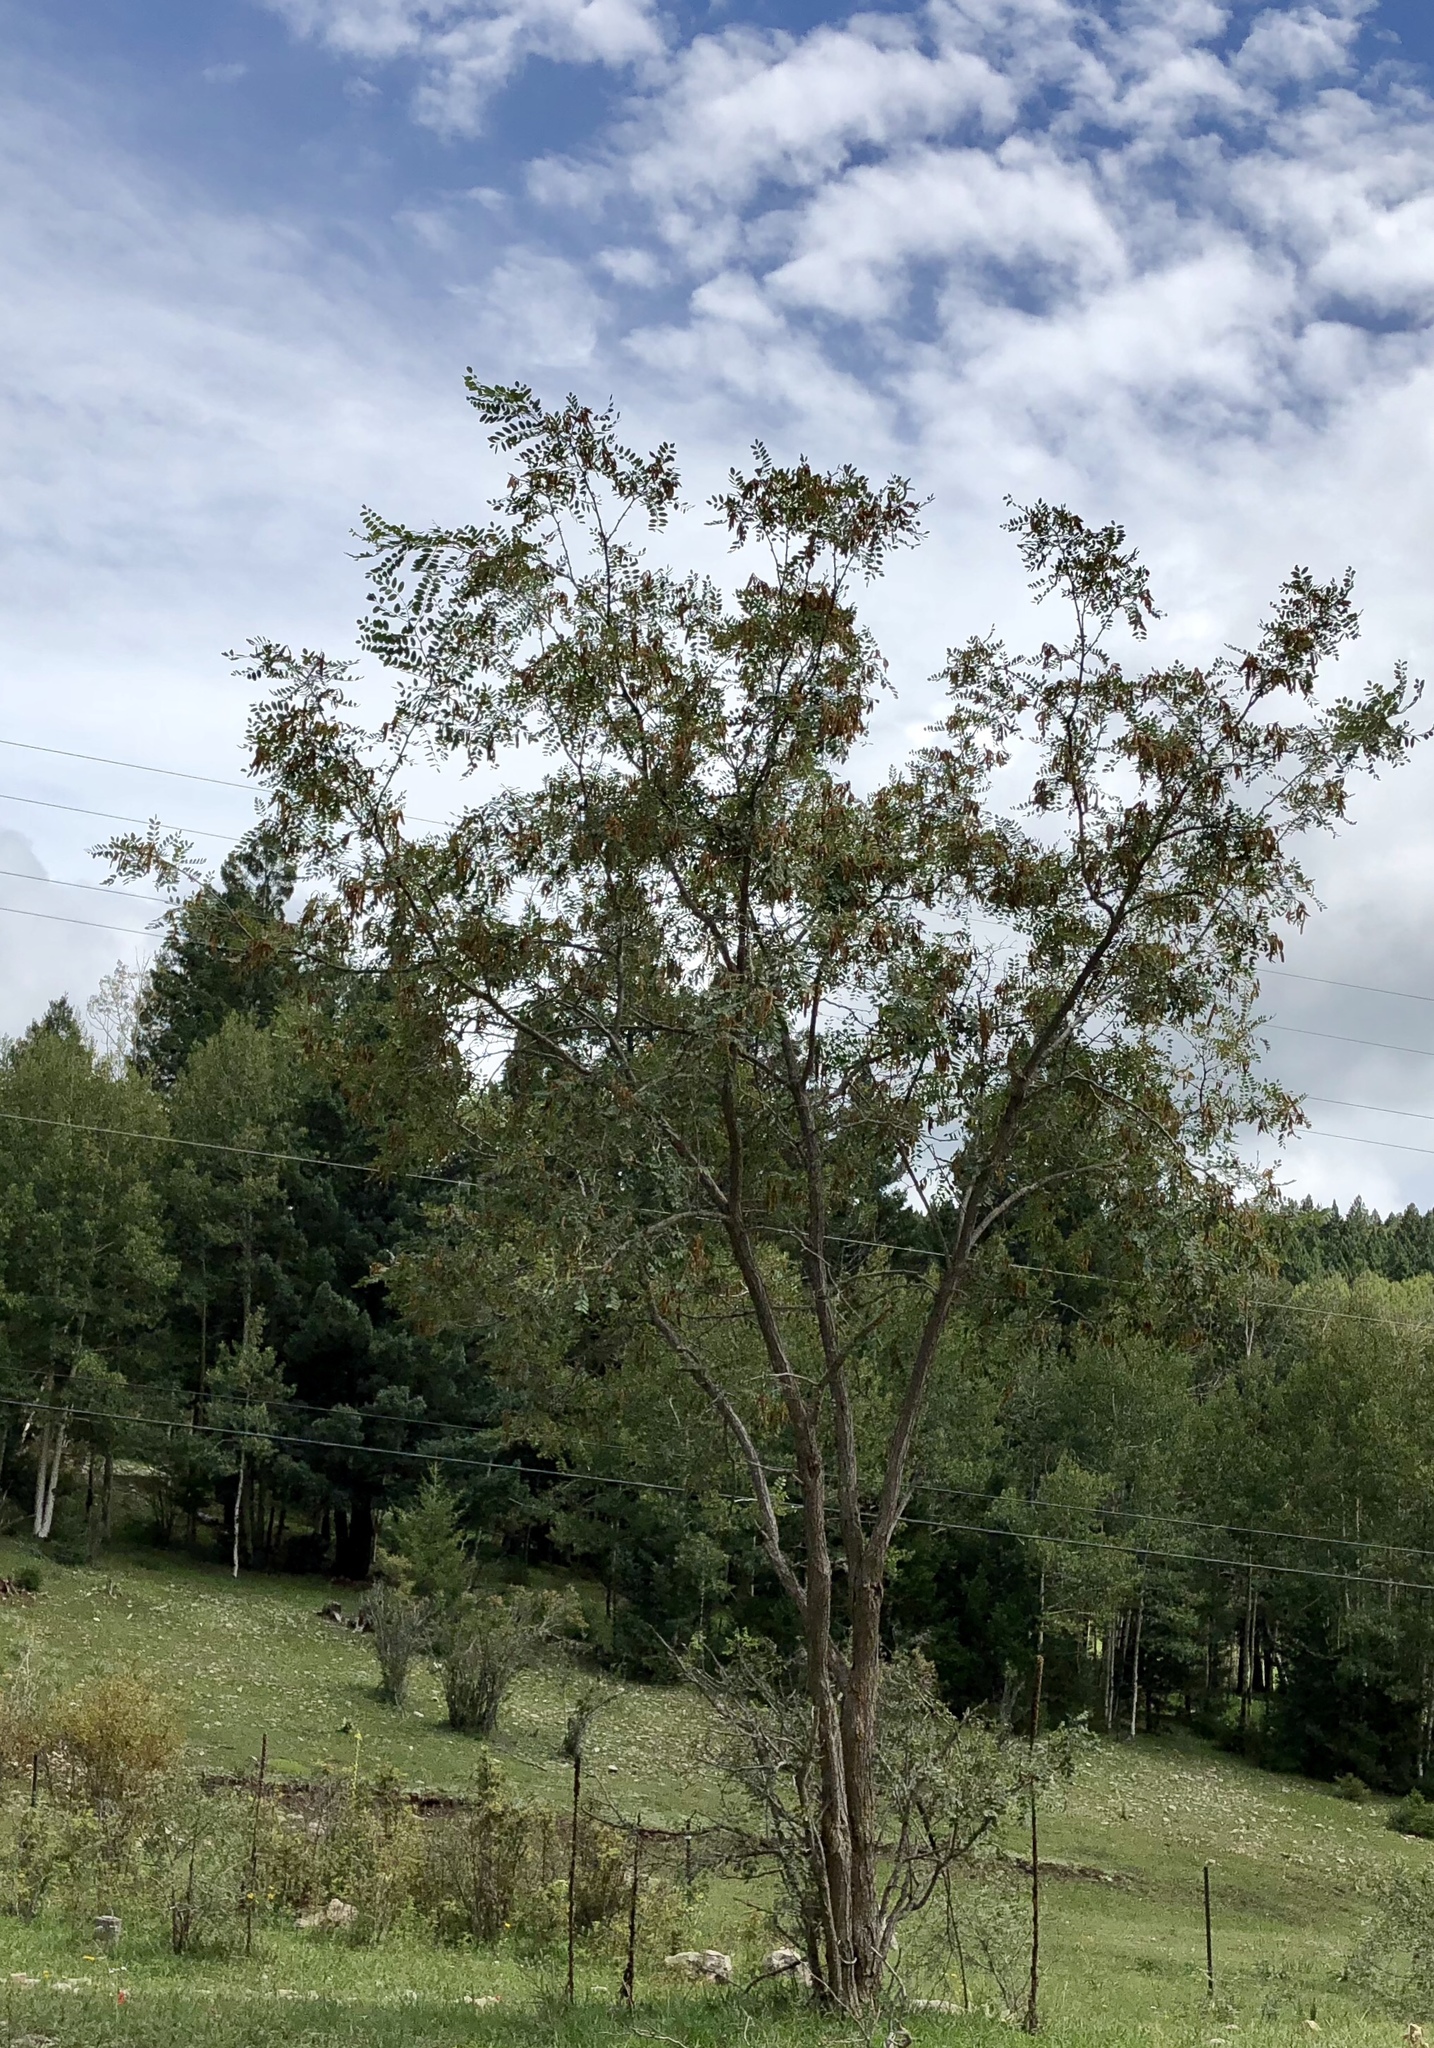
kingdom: Plantae
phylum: Tracheophyta
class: Magnoliopsida
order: Fabales
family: Fabaceae
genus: Robinia
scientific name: Robinia neomexicana
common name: New mexico locust
